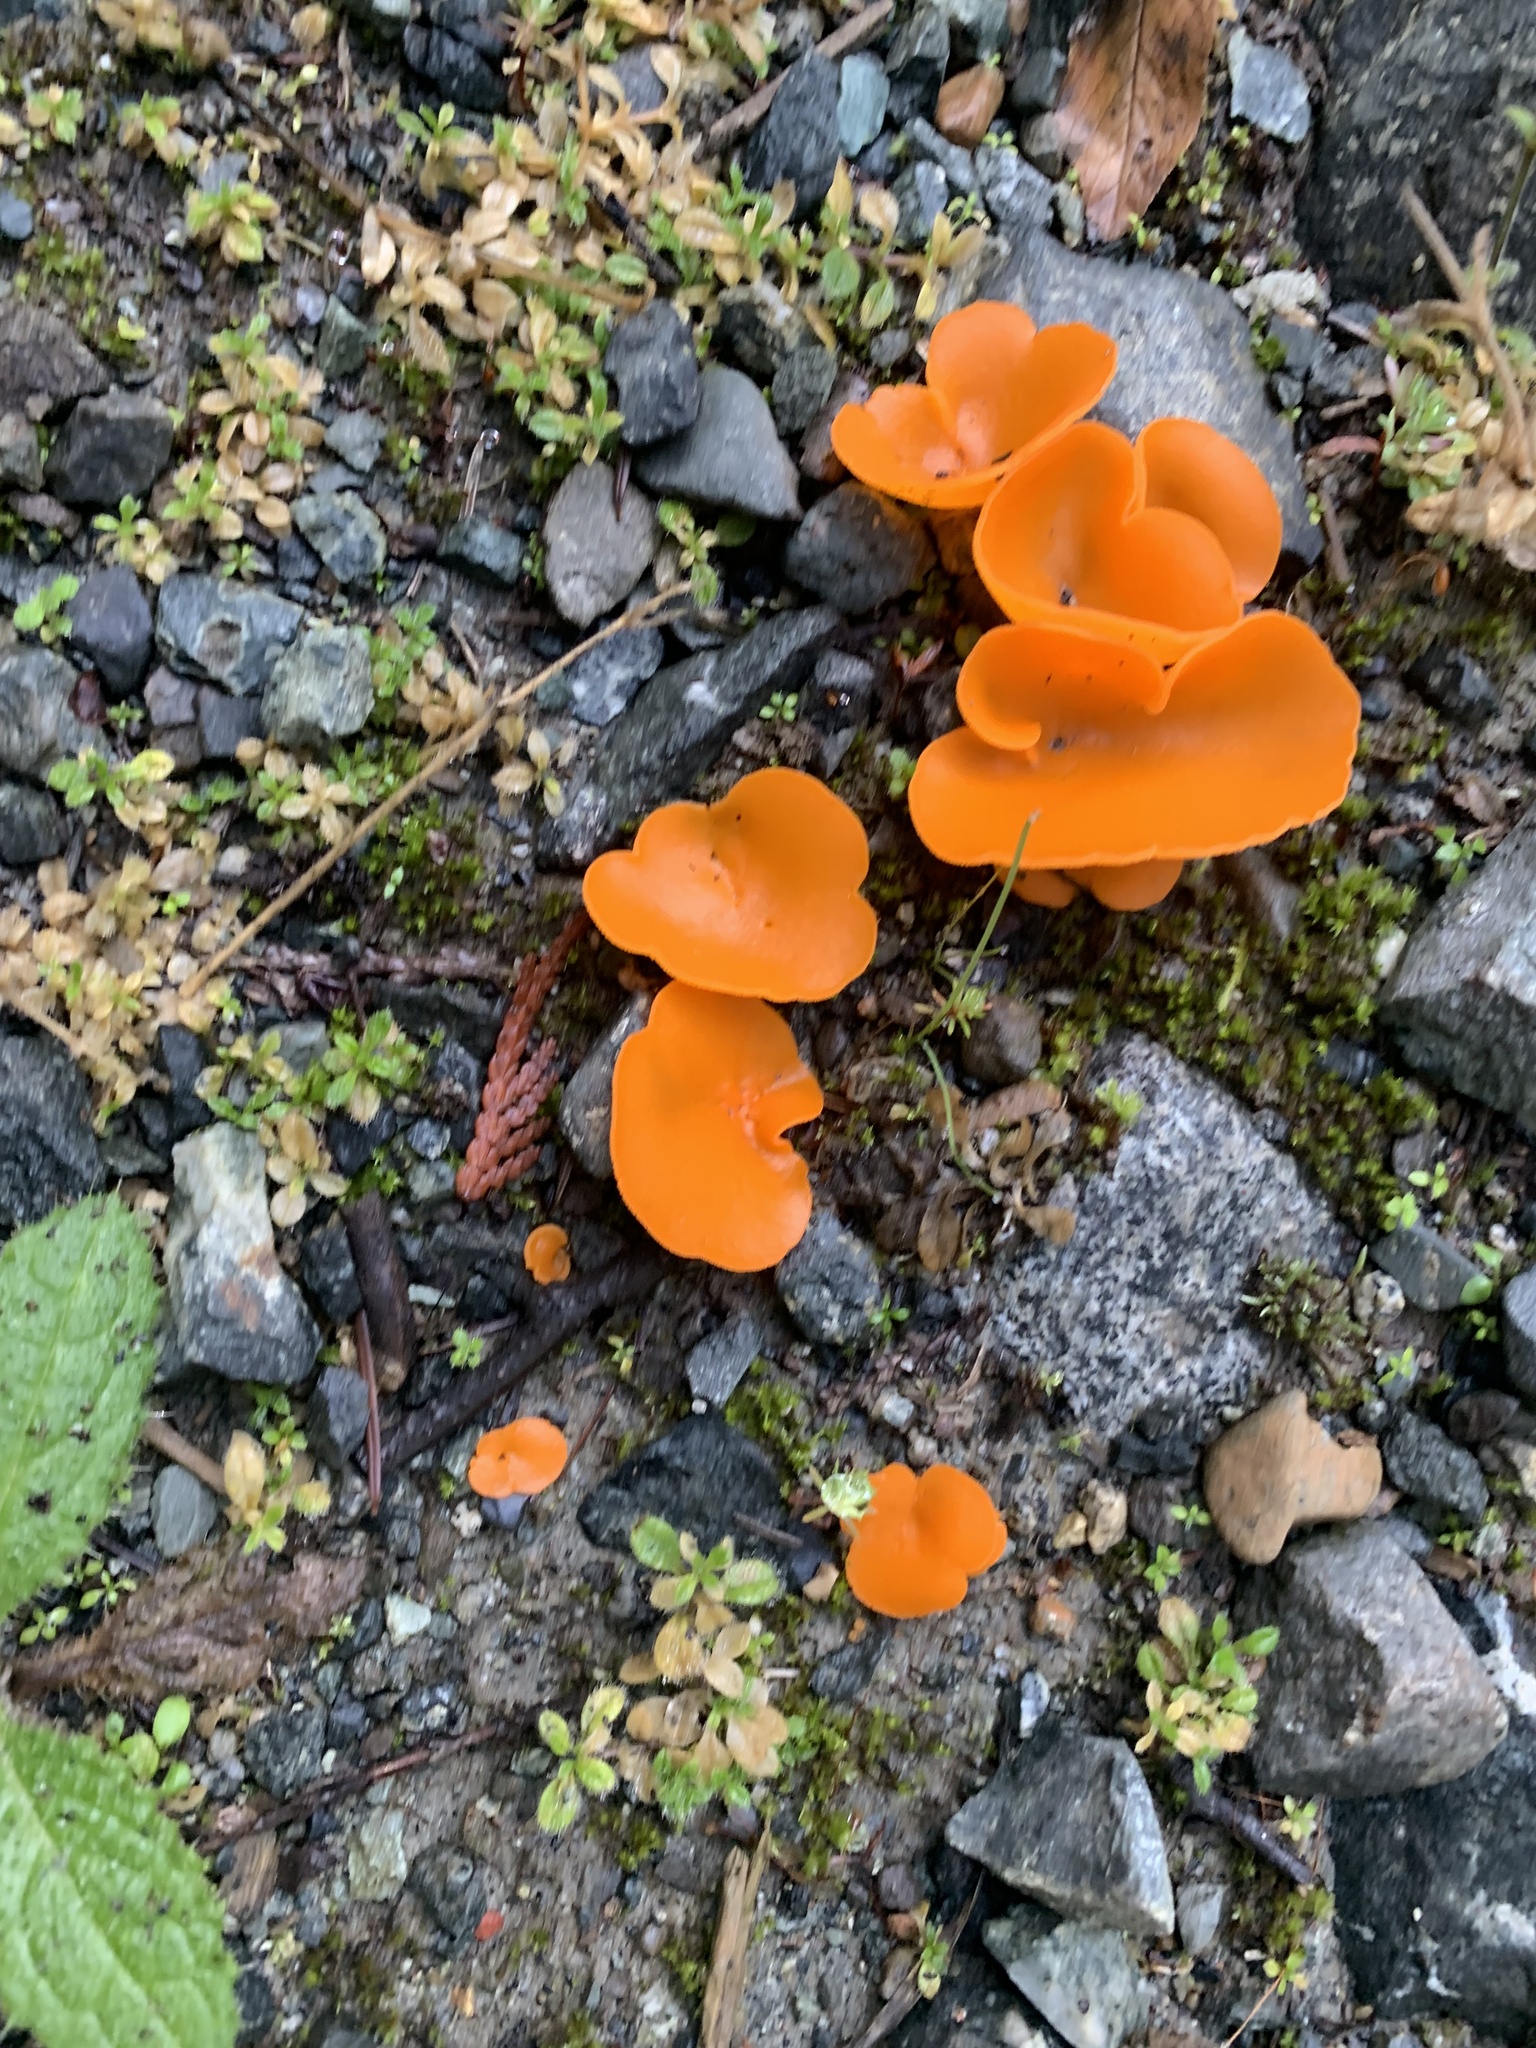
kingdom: Fungi
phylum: Ascomycota
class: Pezizomycetes
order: Pezizales
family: Pyronemataceae
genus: Aleuria
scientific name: Aleuria aurantia
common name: Orange peel fungus
